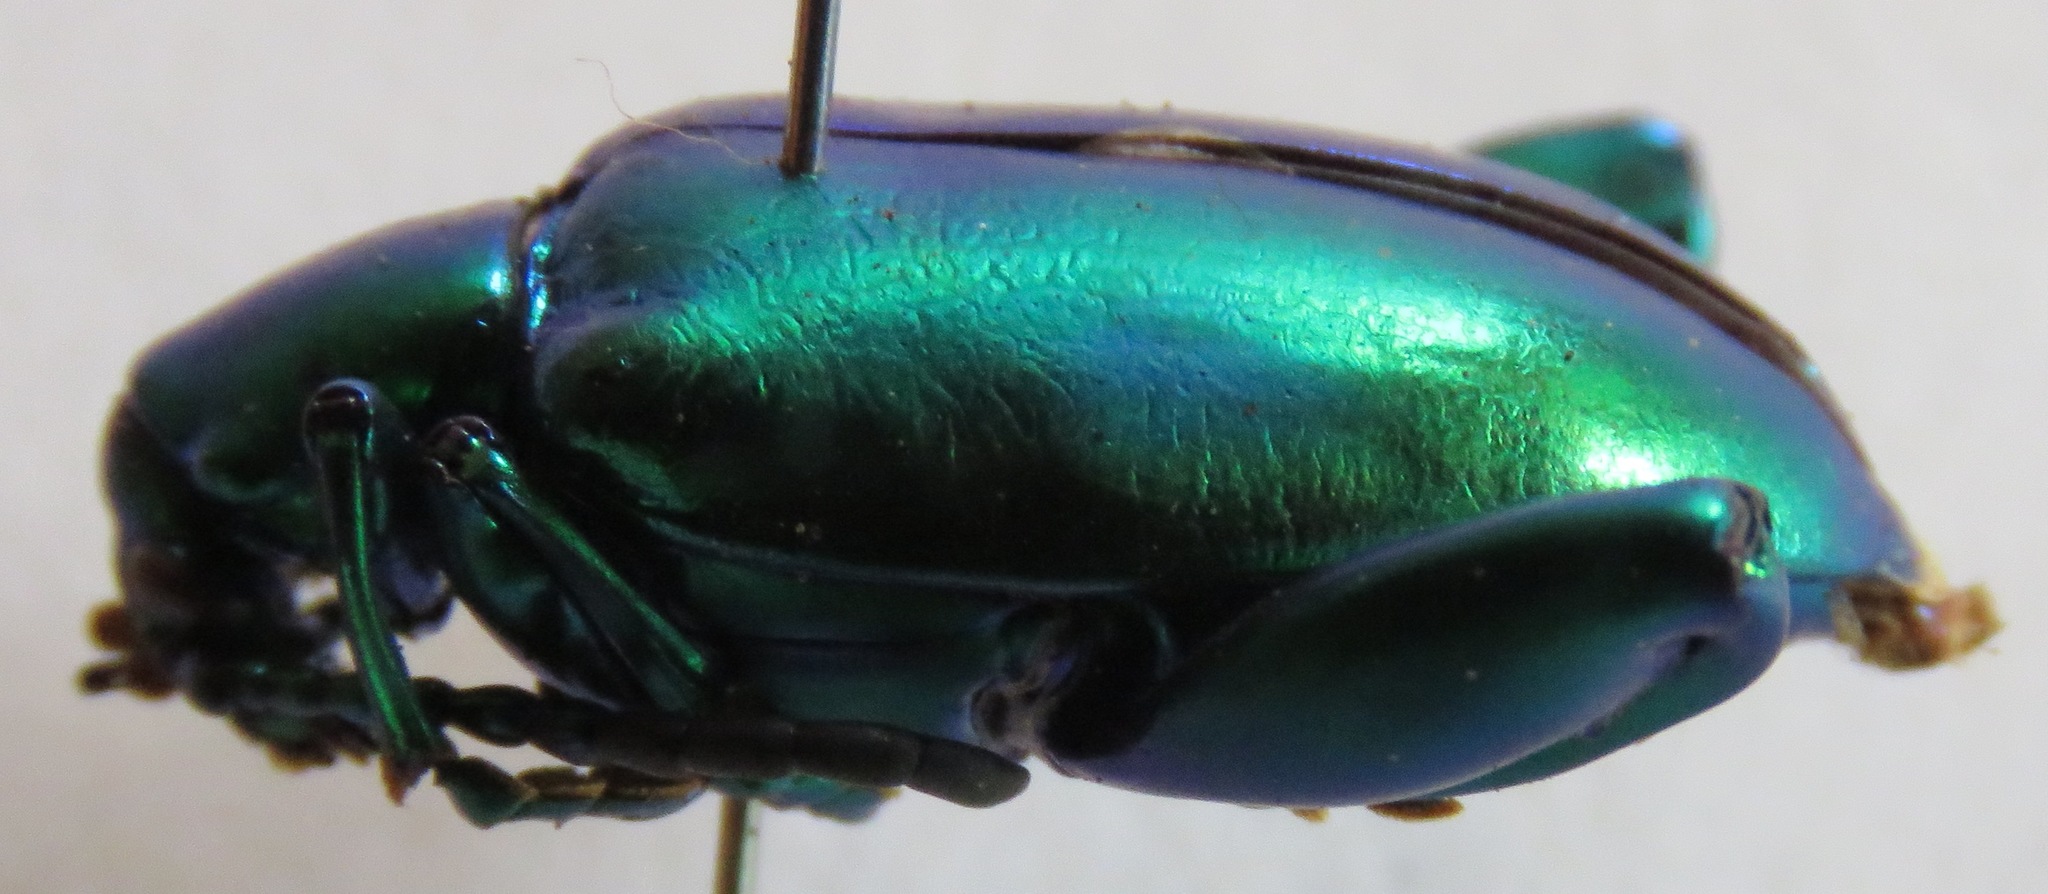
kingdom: Animalia
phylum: Arthropoda
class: Insecta
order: Coleoptera
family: Chrysomelidae
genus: Sagra
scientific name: Sagra femorata
